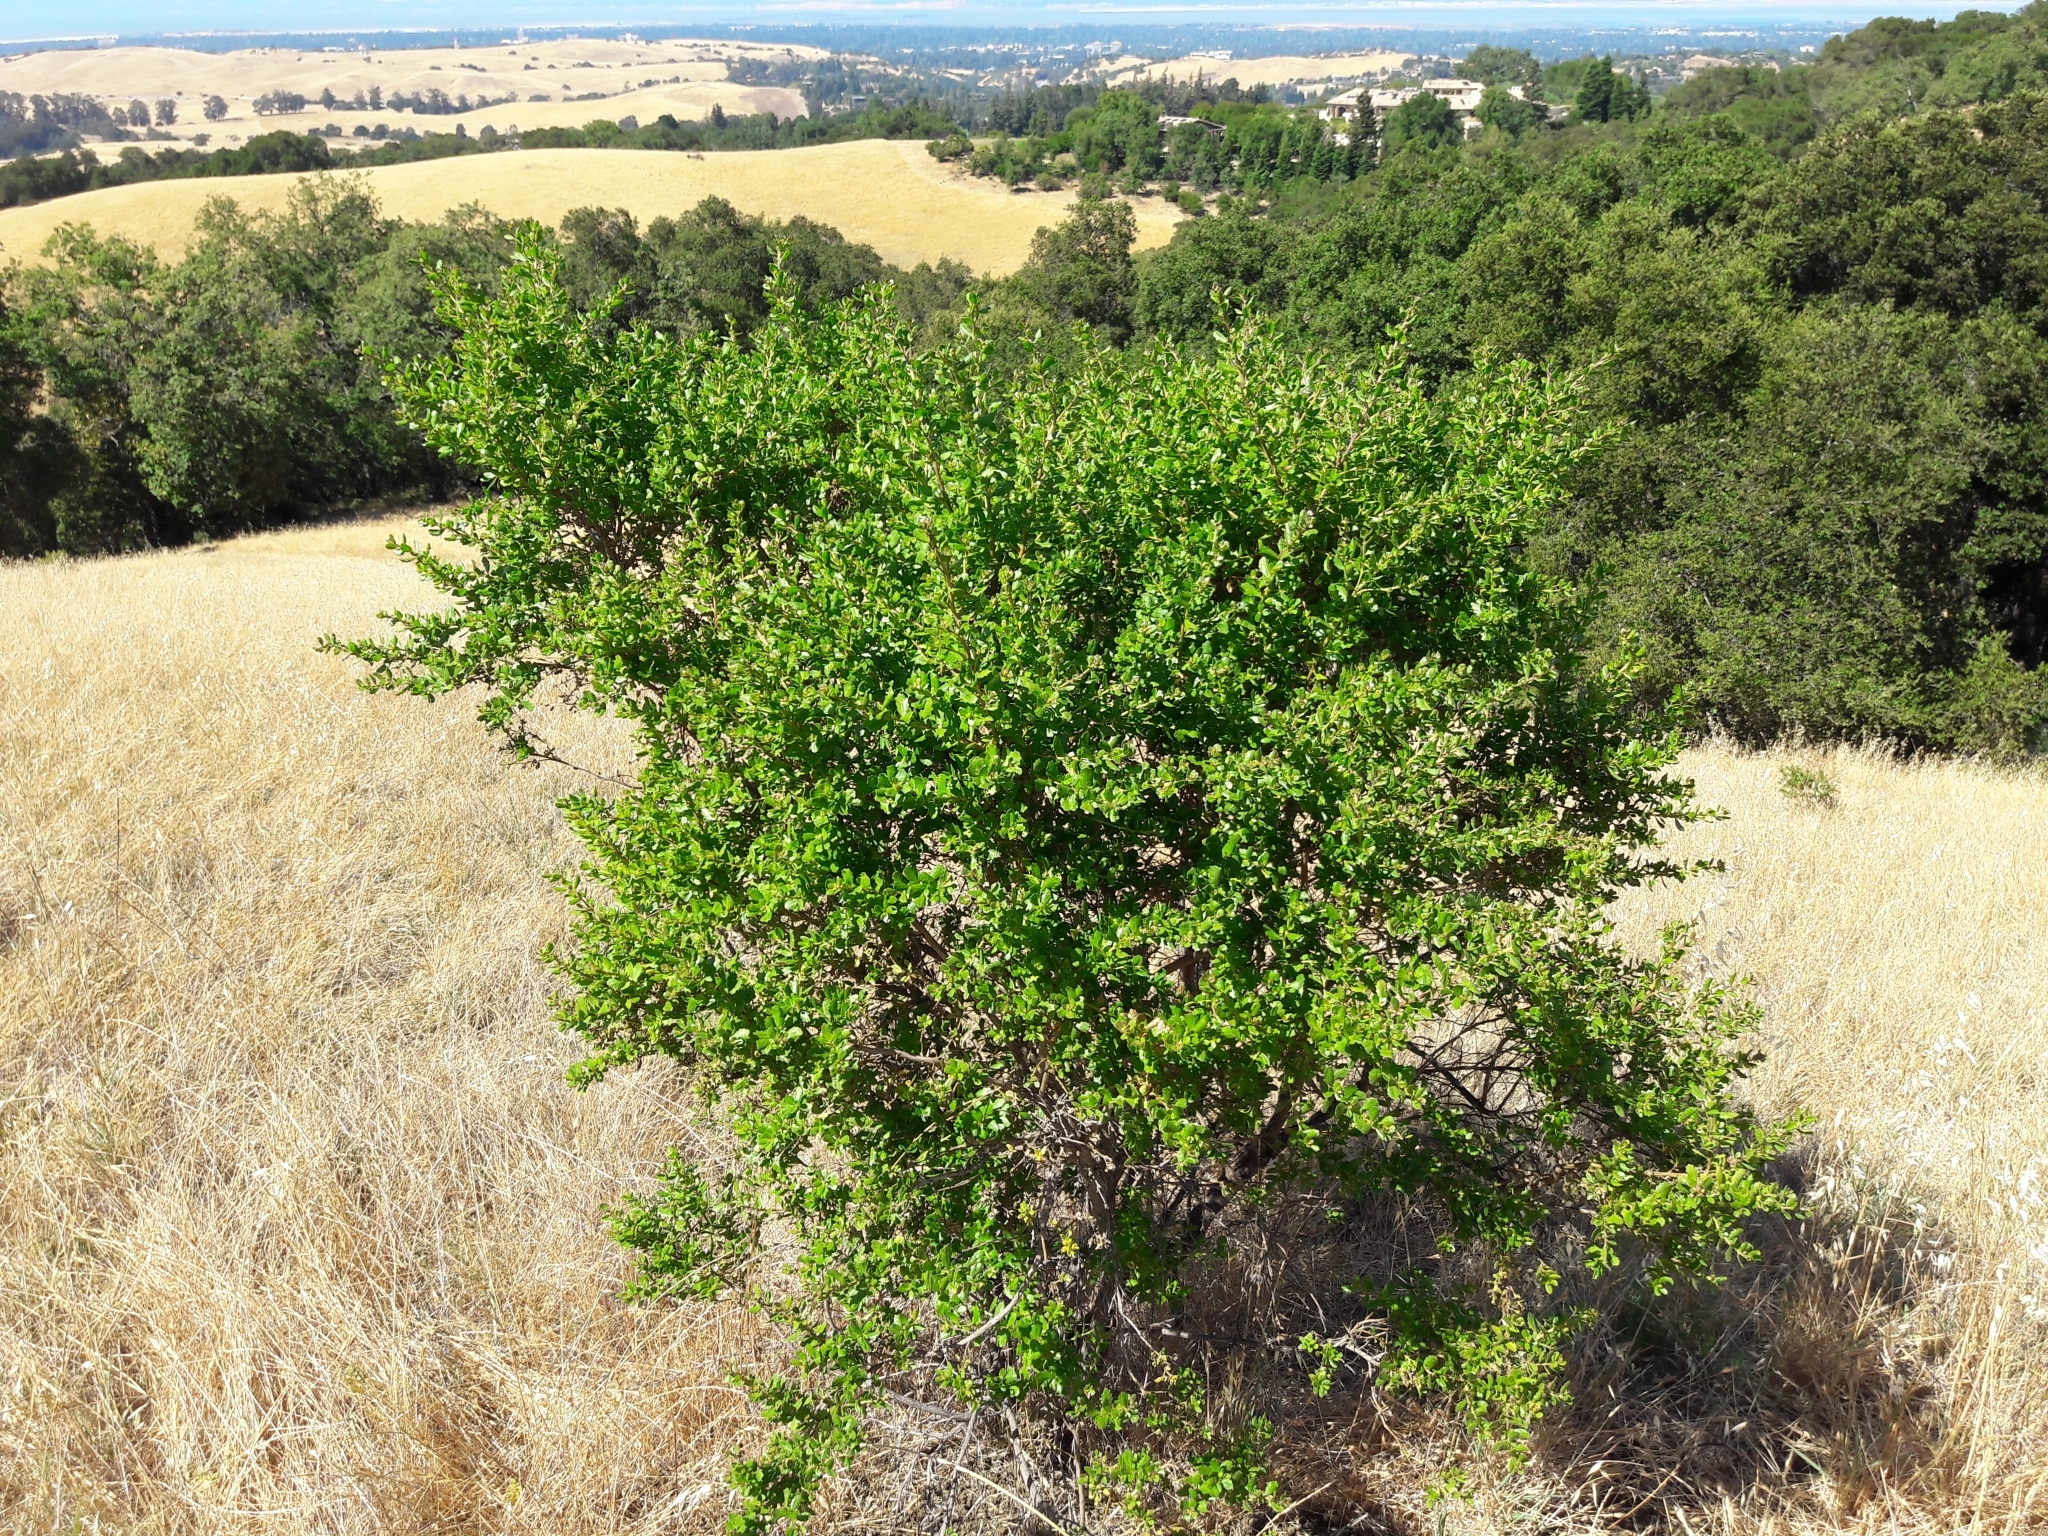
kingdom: Plantae
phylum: Tracheophyta
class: Magnoliopsida
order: Asterales
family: Asteraceae
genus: Baccharis
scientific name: Baccharis pilularis
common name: Coyotebrush
